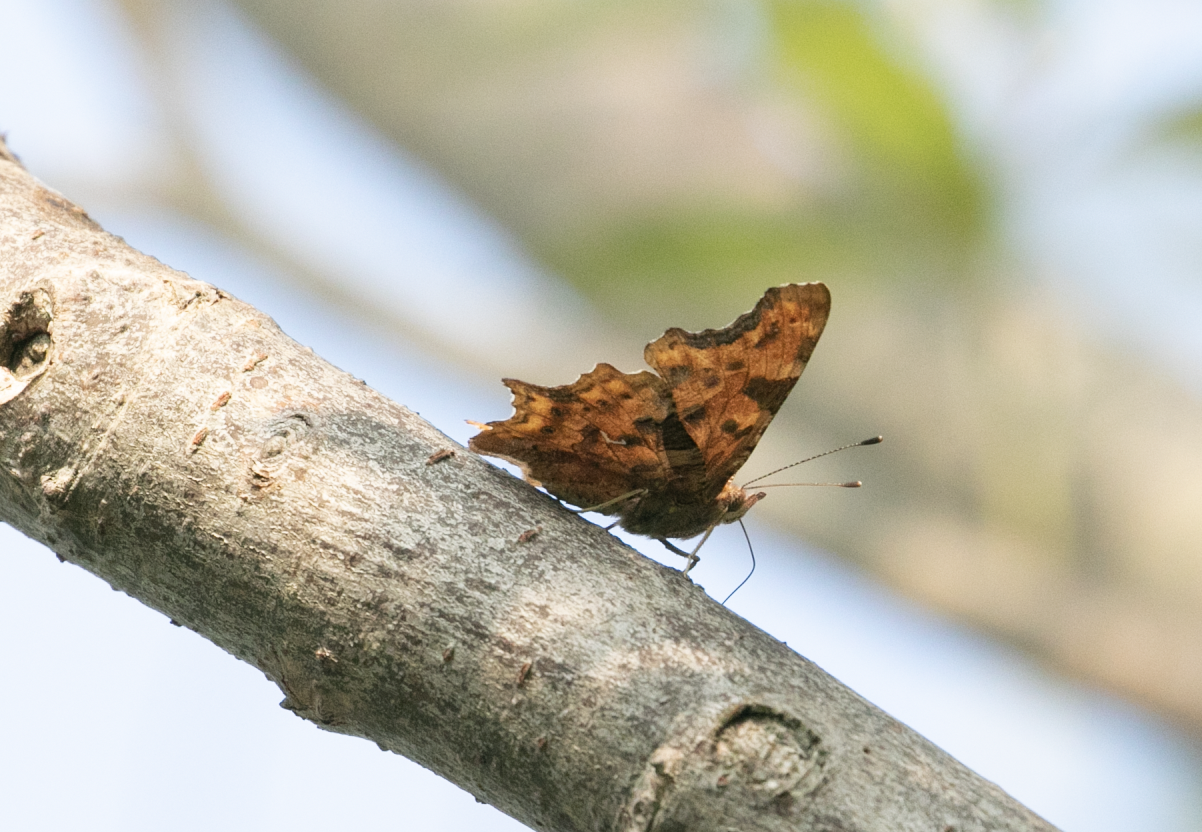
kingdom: Animalia
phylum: Arthropoda
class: Insecta
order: Lepidoptera
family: Nymphalidae
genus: Polygonia
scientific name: Polygonia c-album
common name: Comma
